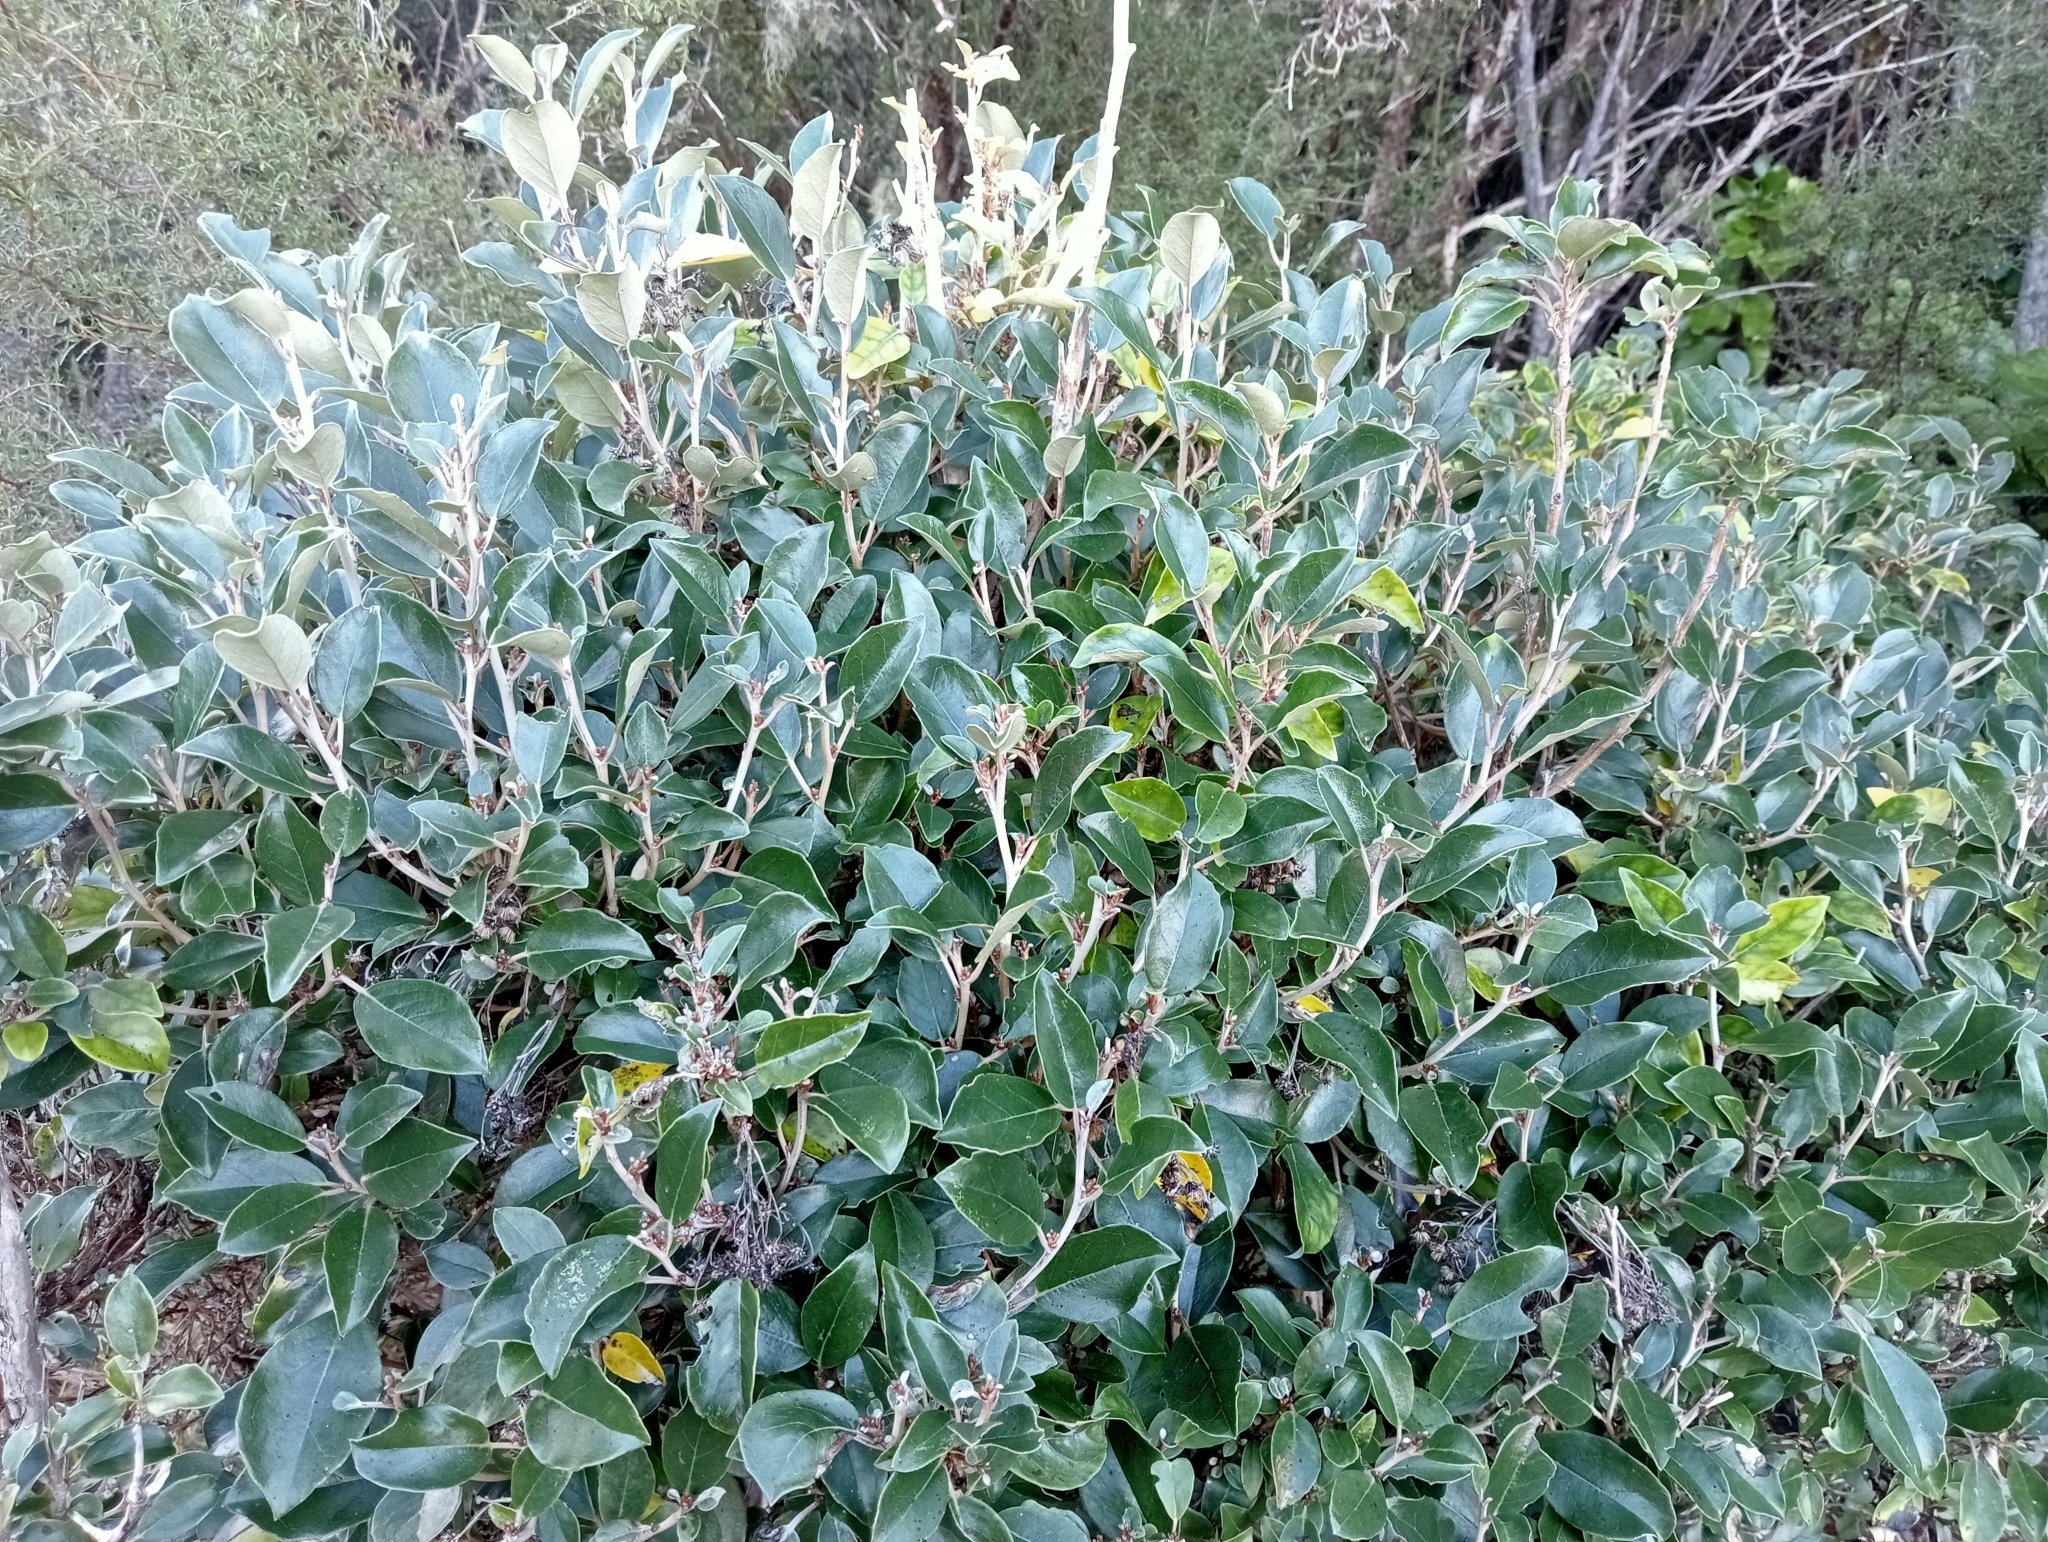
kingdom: Plantae
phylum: Tracheophyta
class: Magnoliopsida
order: Asterales
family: Asteraceae
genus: Olearia
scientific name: Olearia arborescens
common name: Glossy tree daisy
